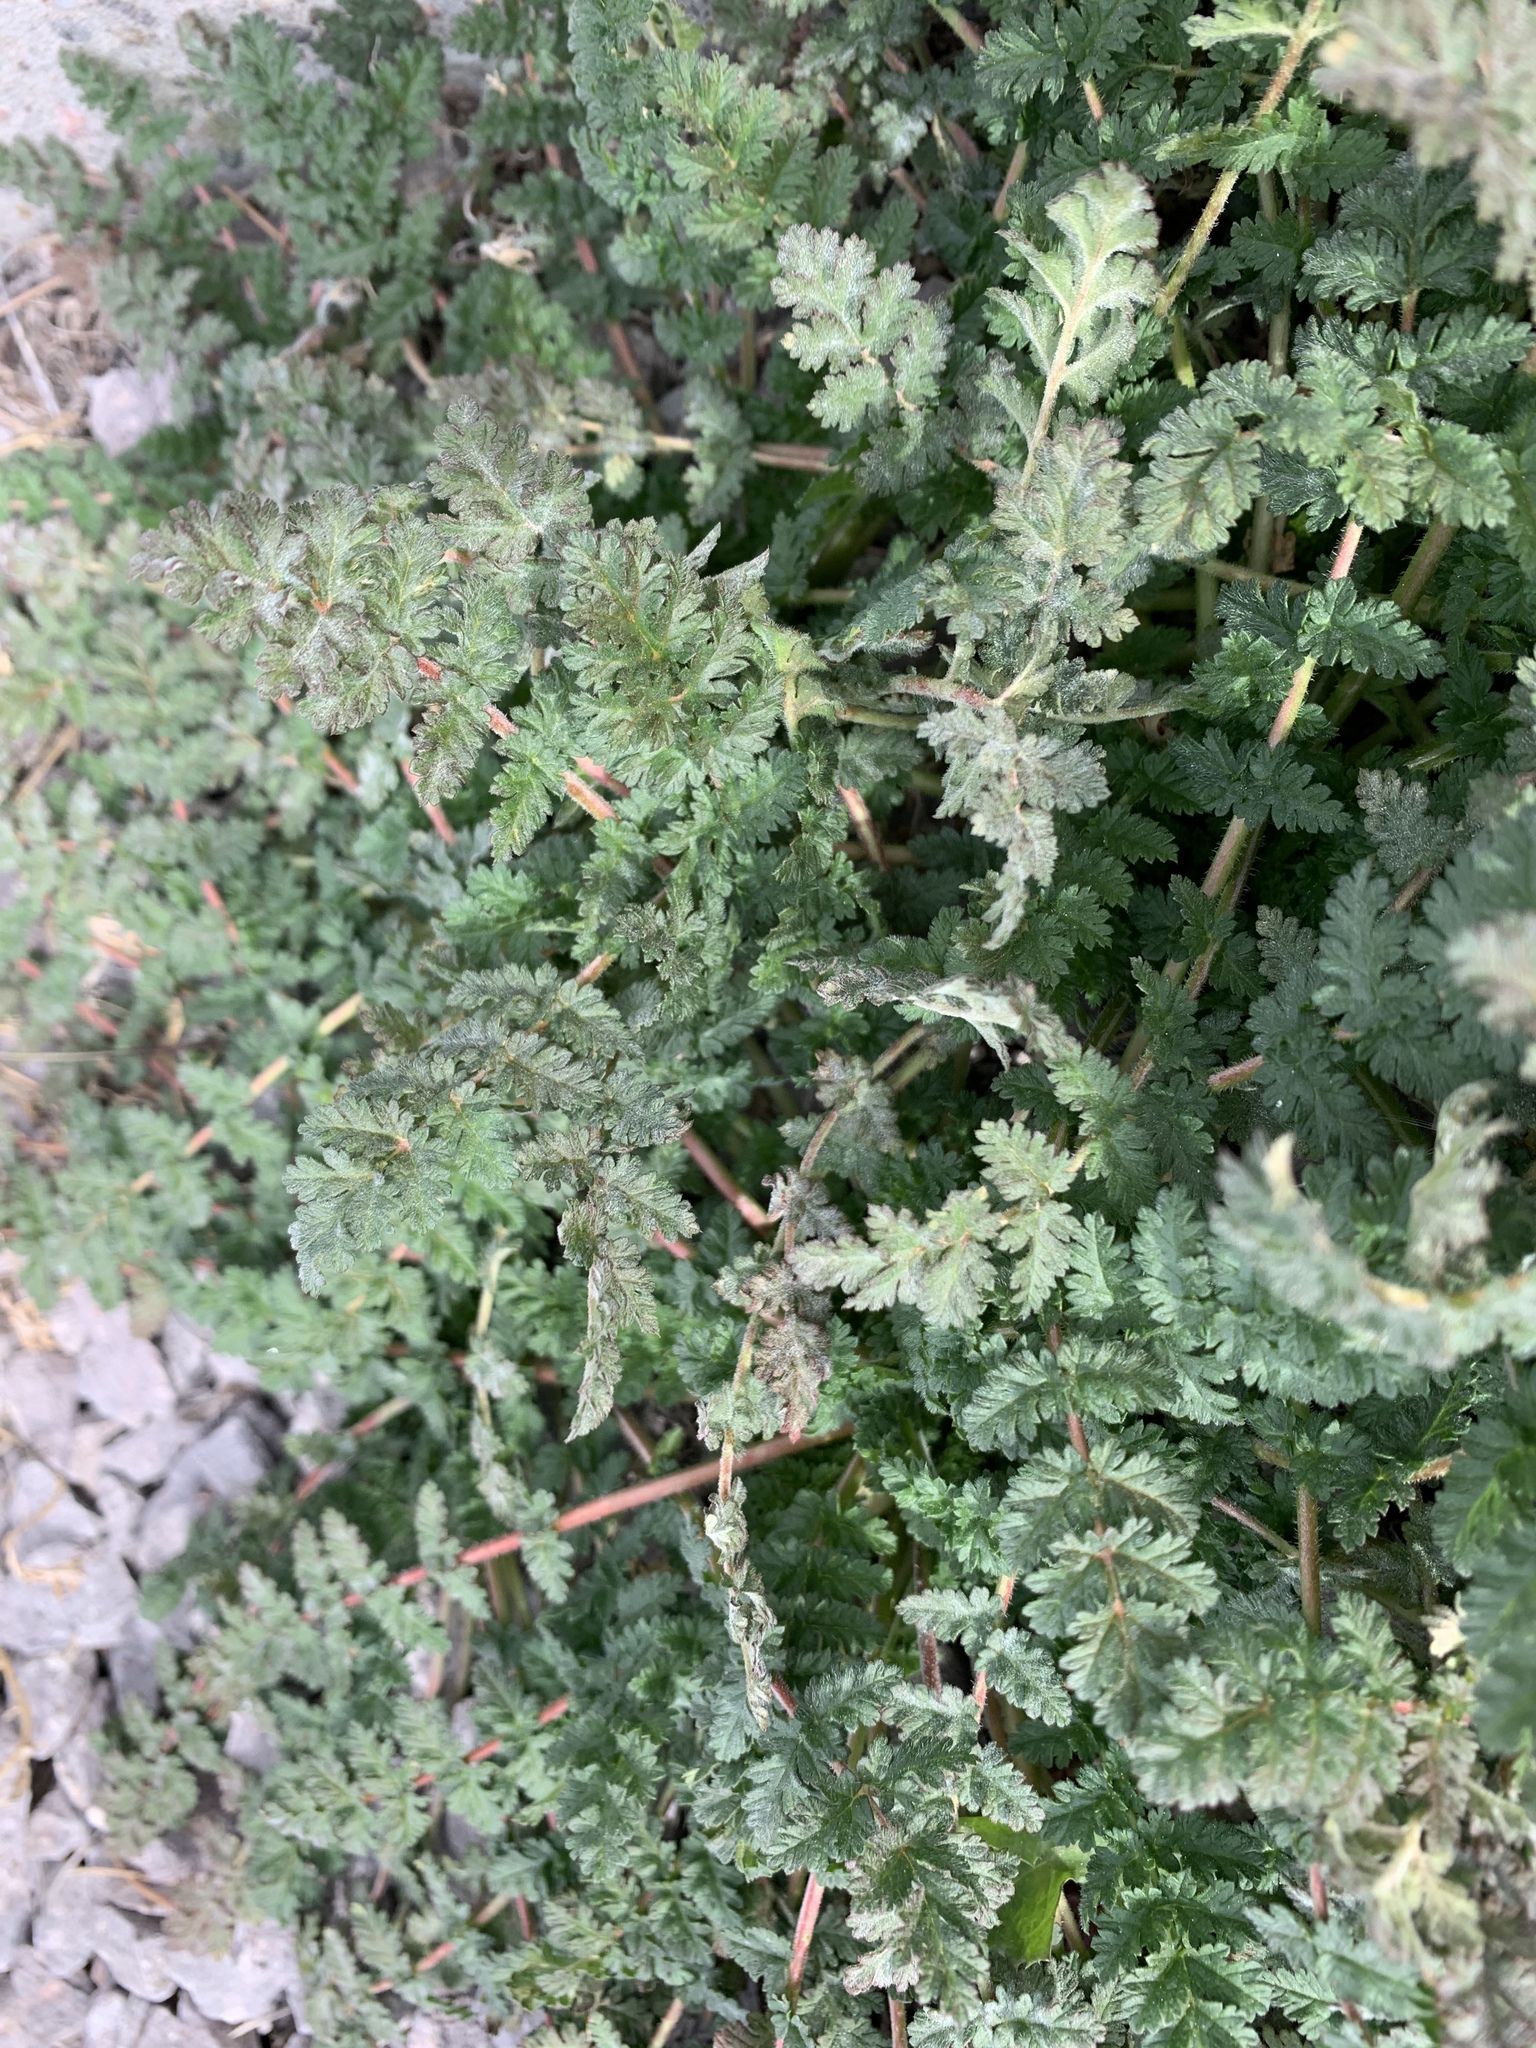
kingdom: Plantae
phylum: Tracheophyta
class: Magnoliopsida
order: Geraniales
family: Geraniaceae
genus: Erodium
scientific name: Erodium cicutarium
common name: Common stork's-bill
